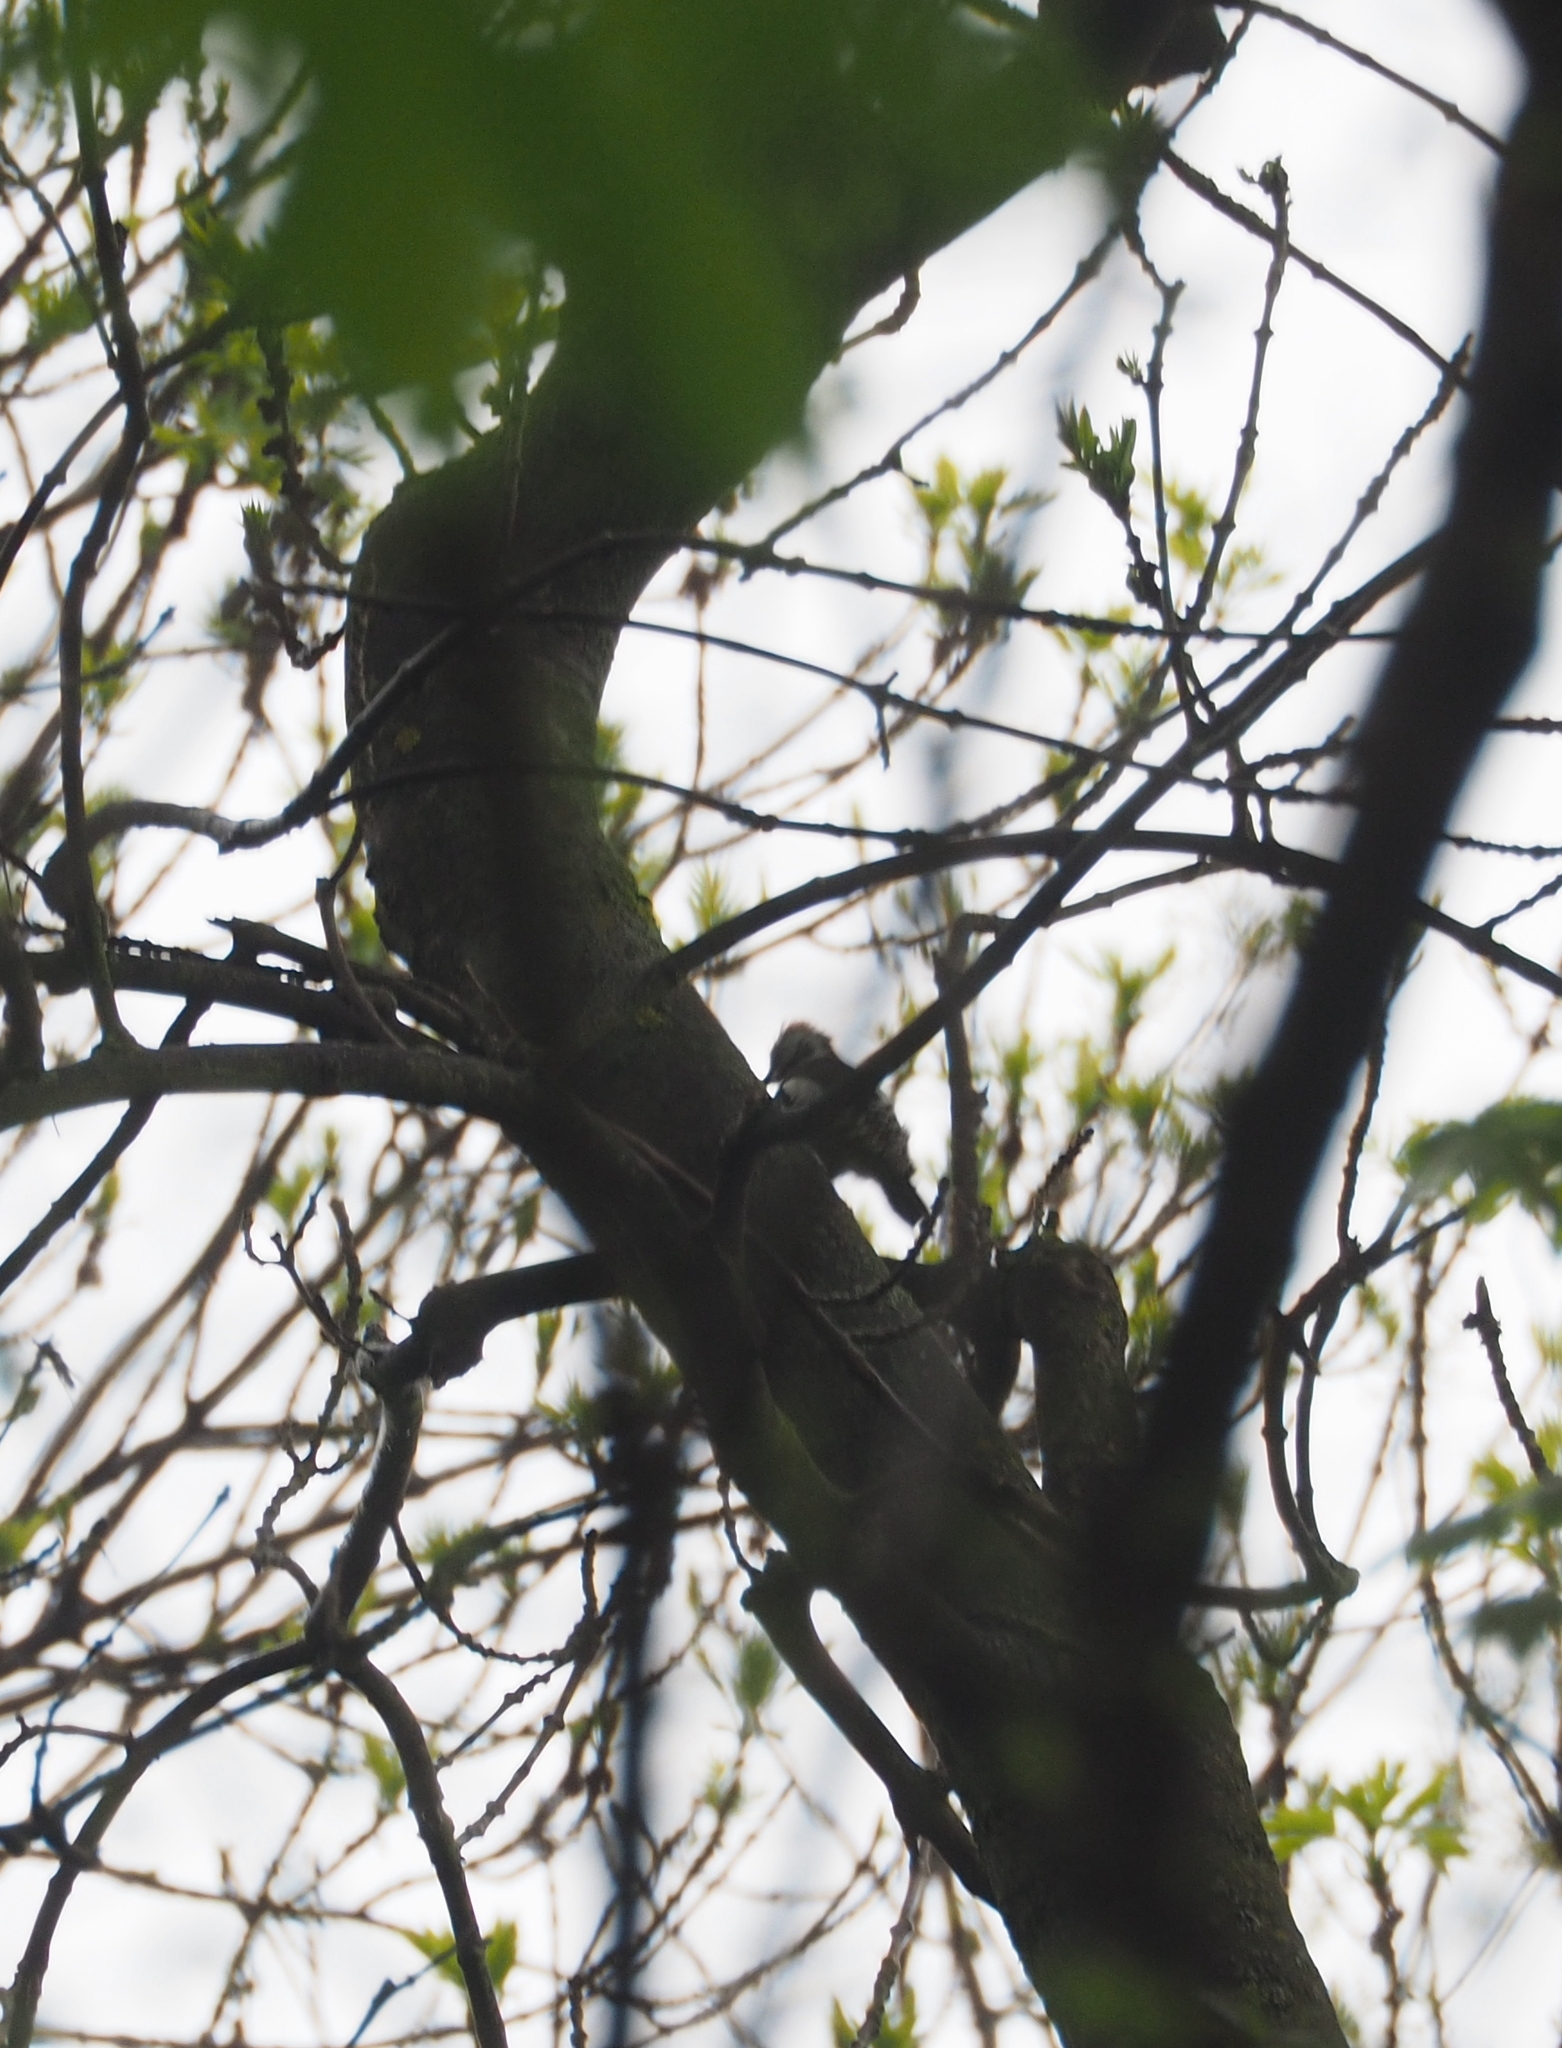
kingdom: Animalia
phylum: Chordata
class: Aves
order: Piciformes
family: Picidae
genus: Dendrocoptes
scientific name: Dendrocoptes medius
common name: Middle spotted woodpecker
